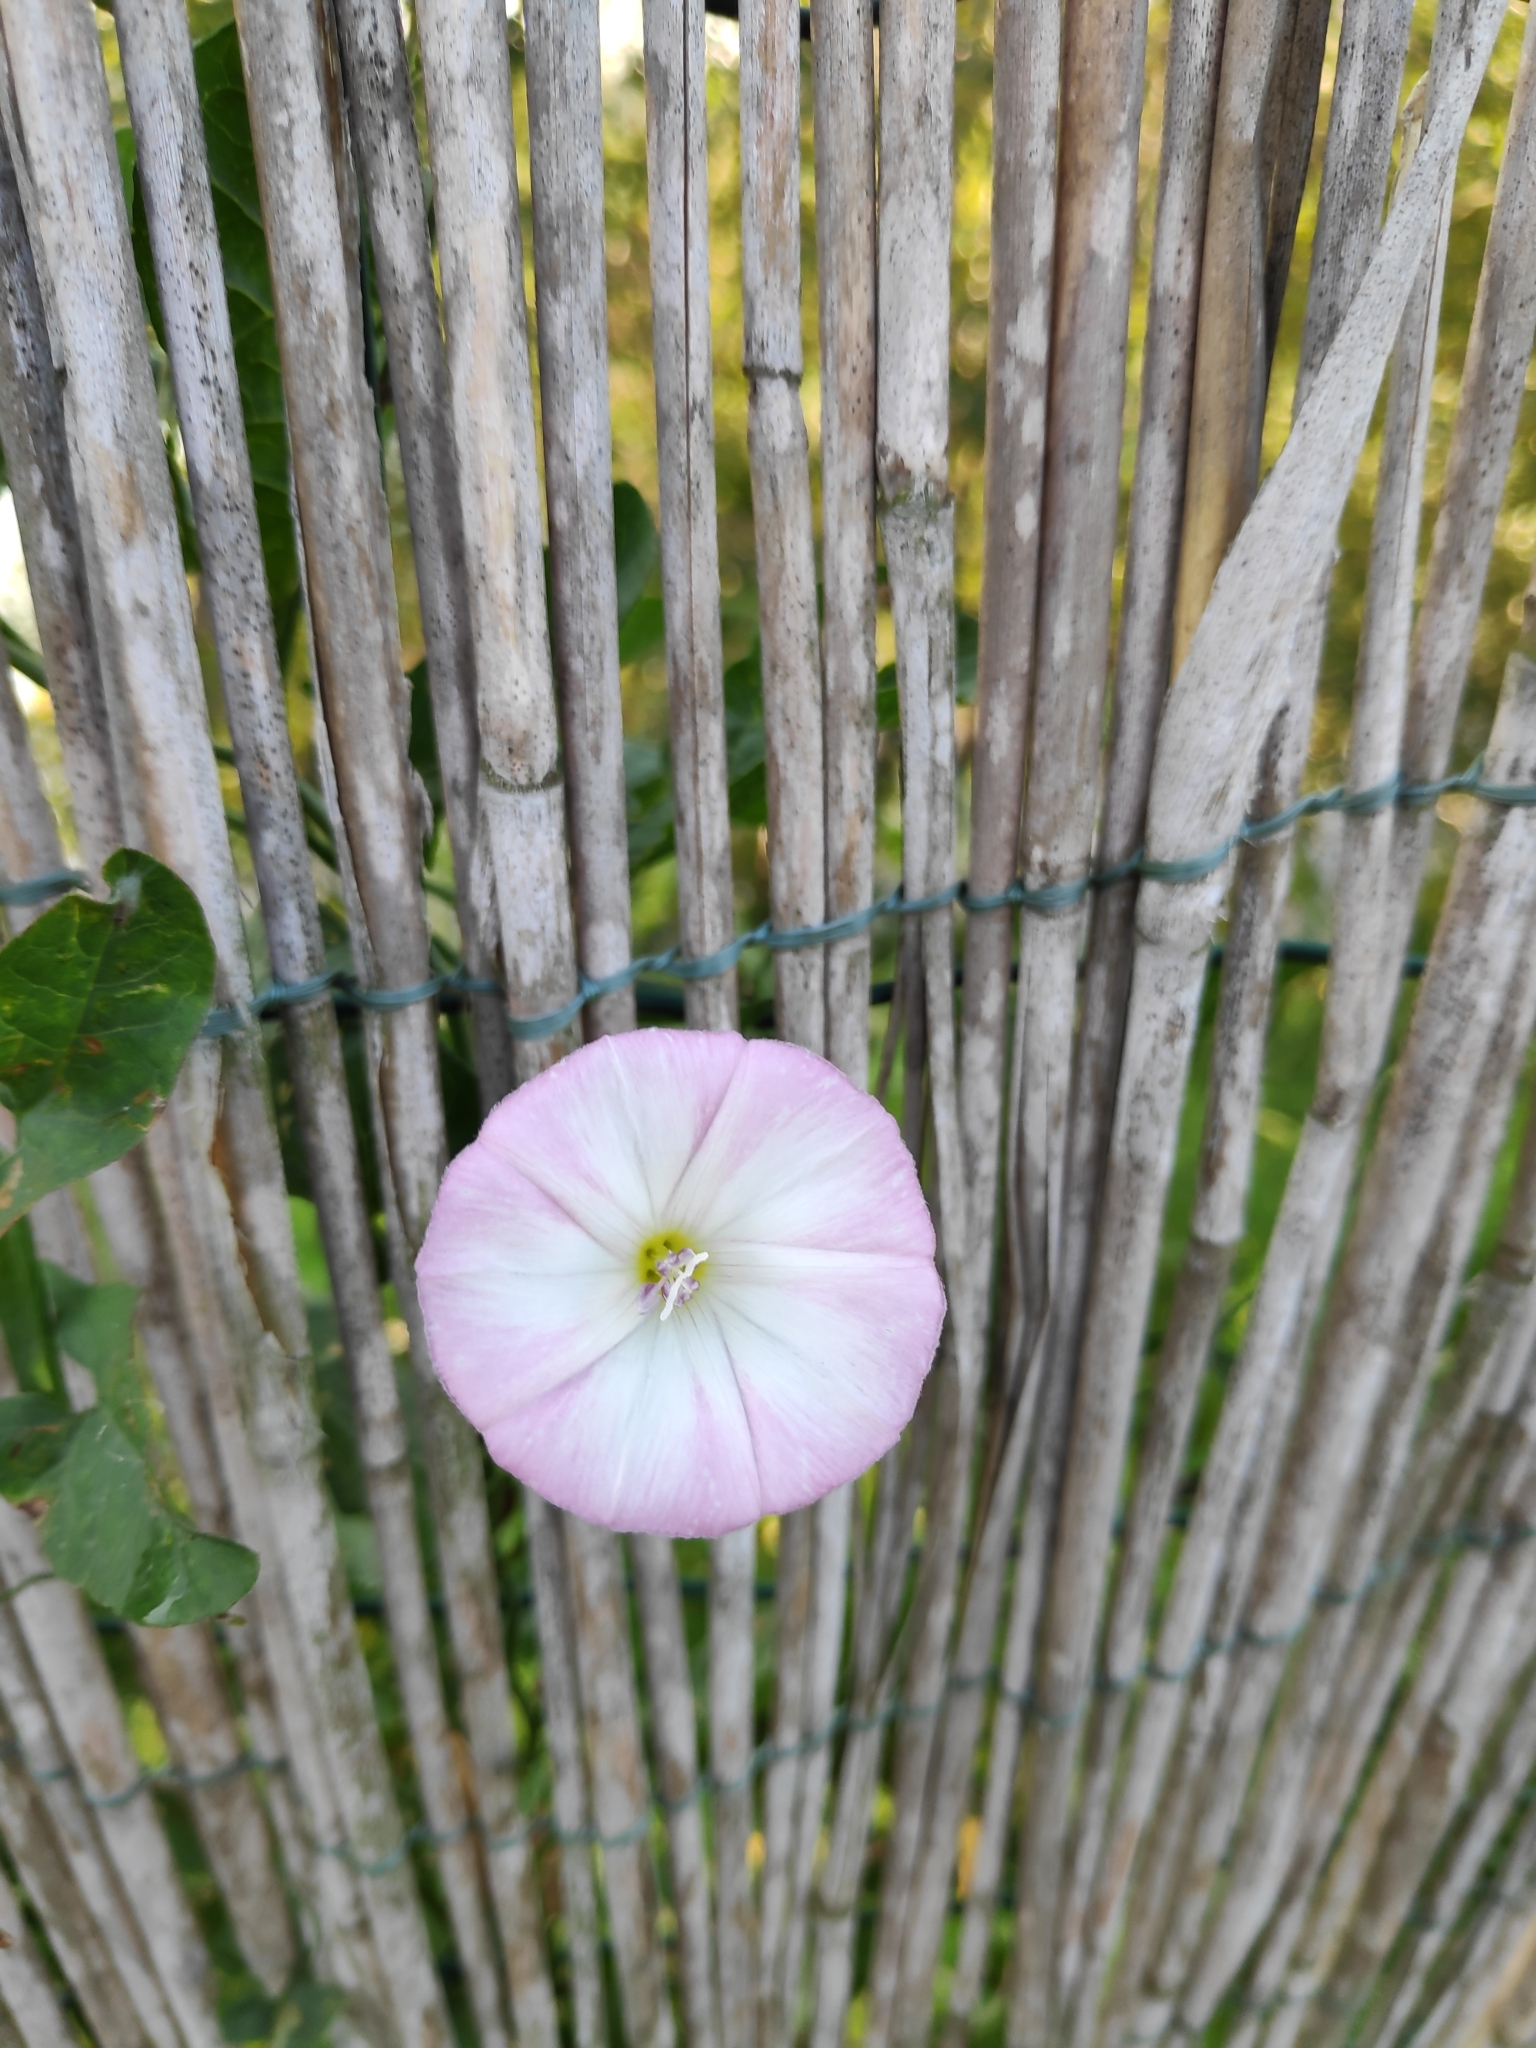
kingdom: Plantae
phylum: Tracheophyta
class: Magnoliopsida
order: Solanales
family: Convolvulaceae
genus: Convolvulus
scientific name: Convolvulus arvensis
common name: Field bindweed
